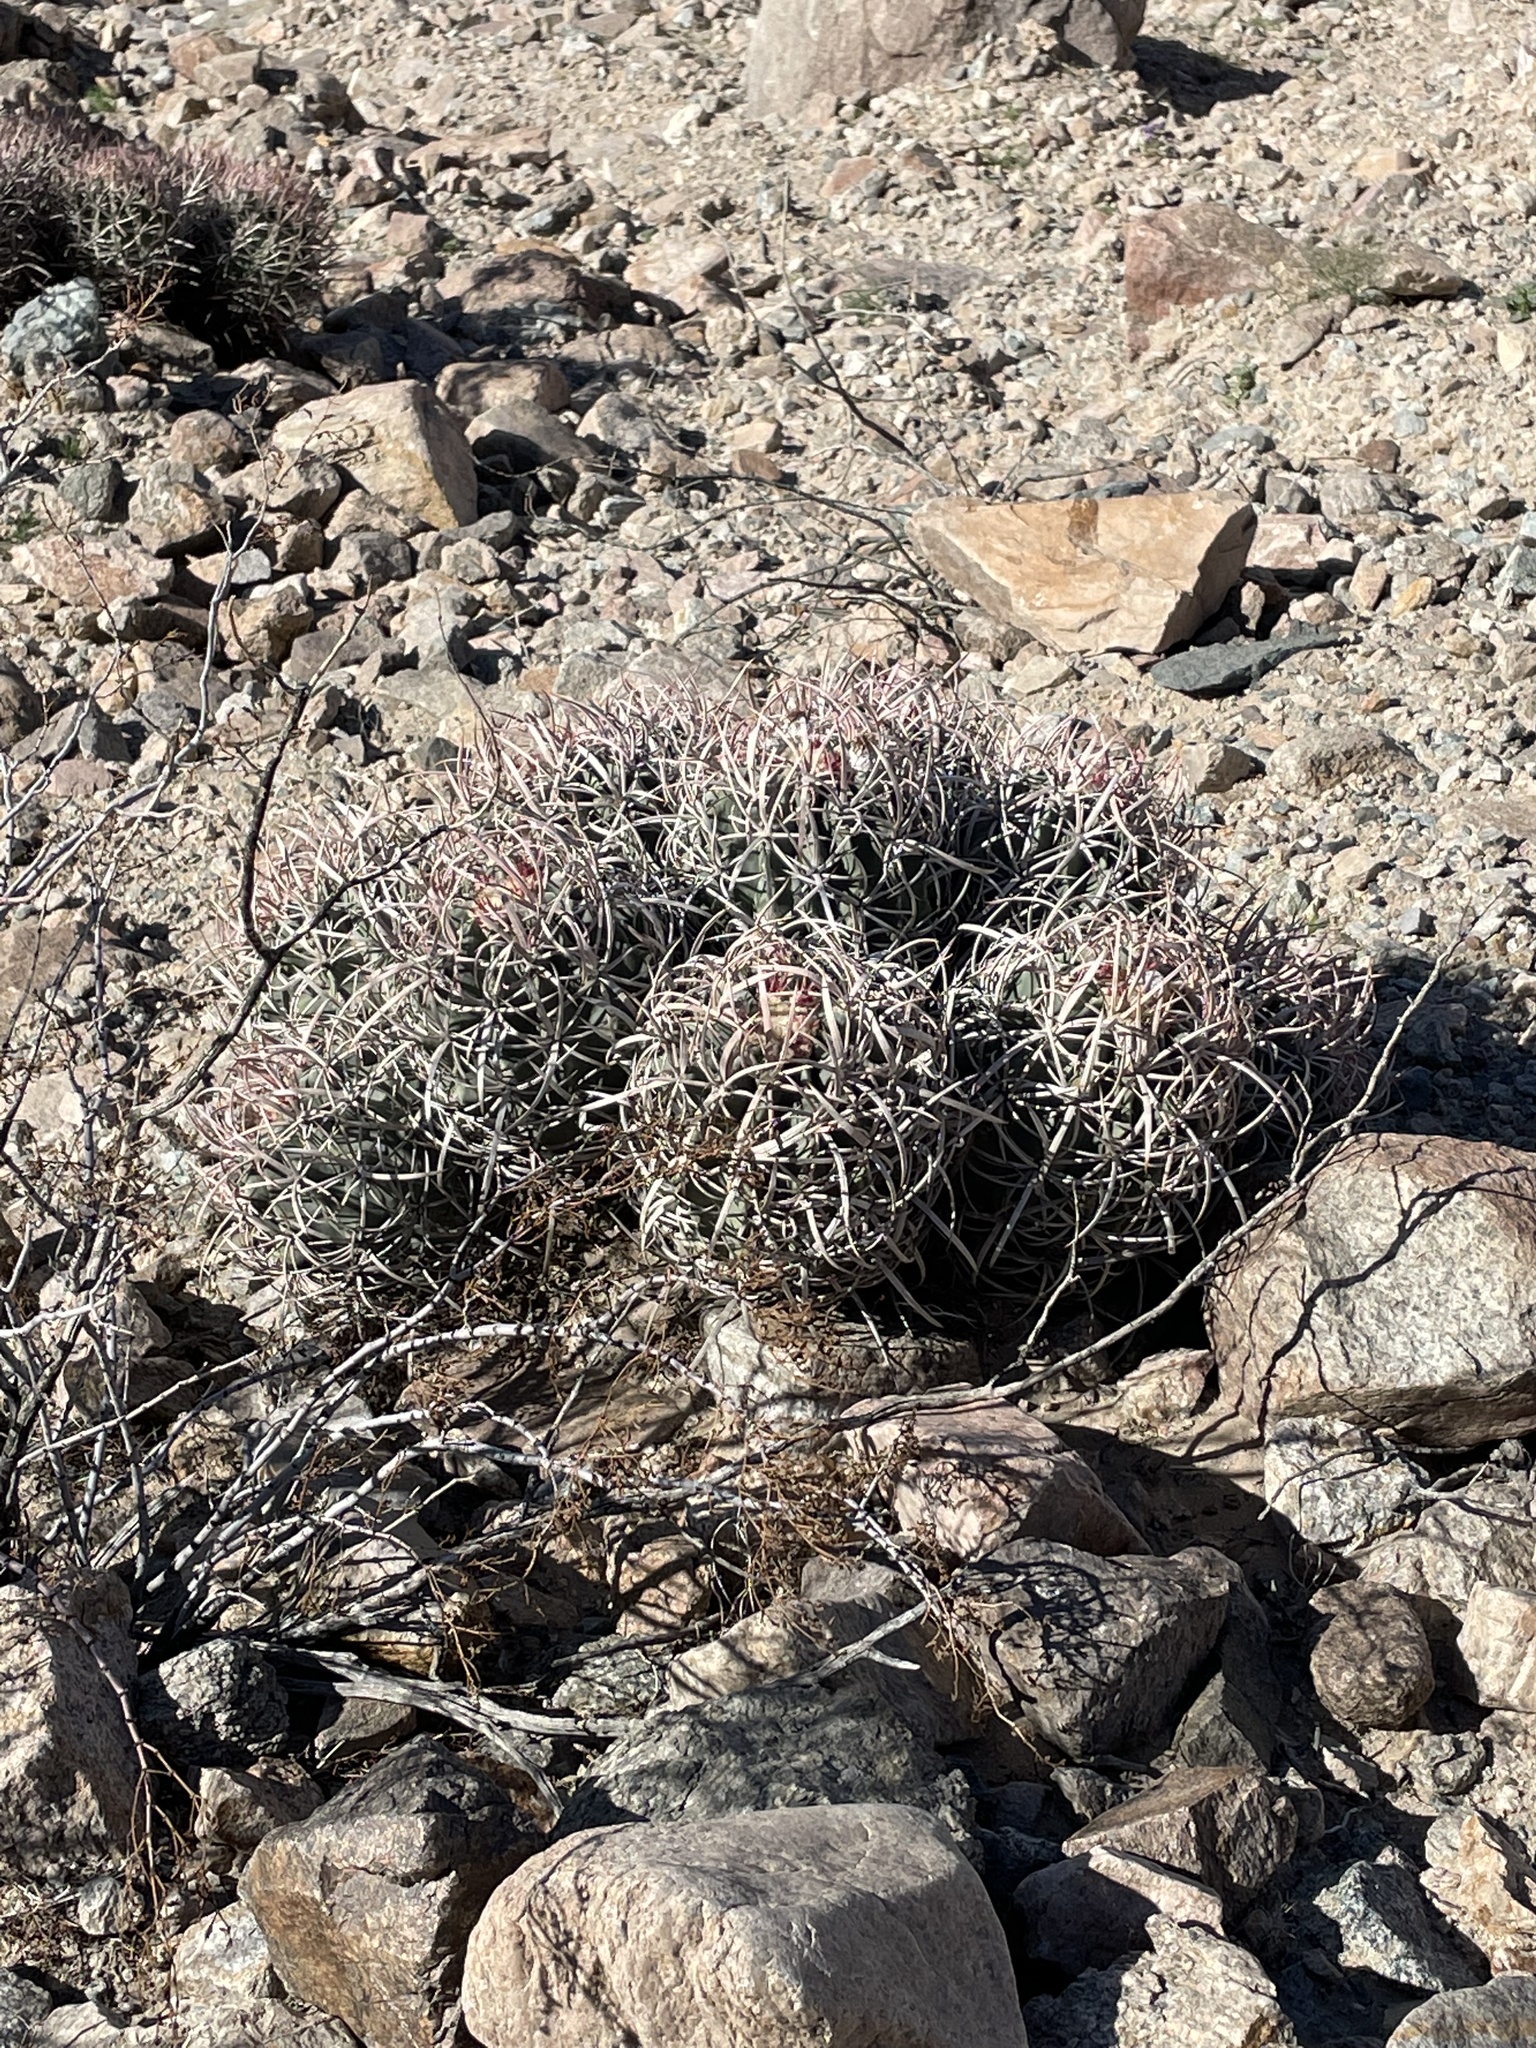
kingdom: Plantae
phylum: Tracheophyta
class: Magnoliopsida
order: Caryophyllales
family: Cactaceae
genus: Echinocactus
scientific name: Echinocactus polycephalus
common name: Cottontop cactus
